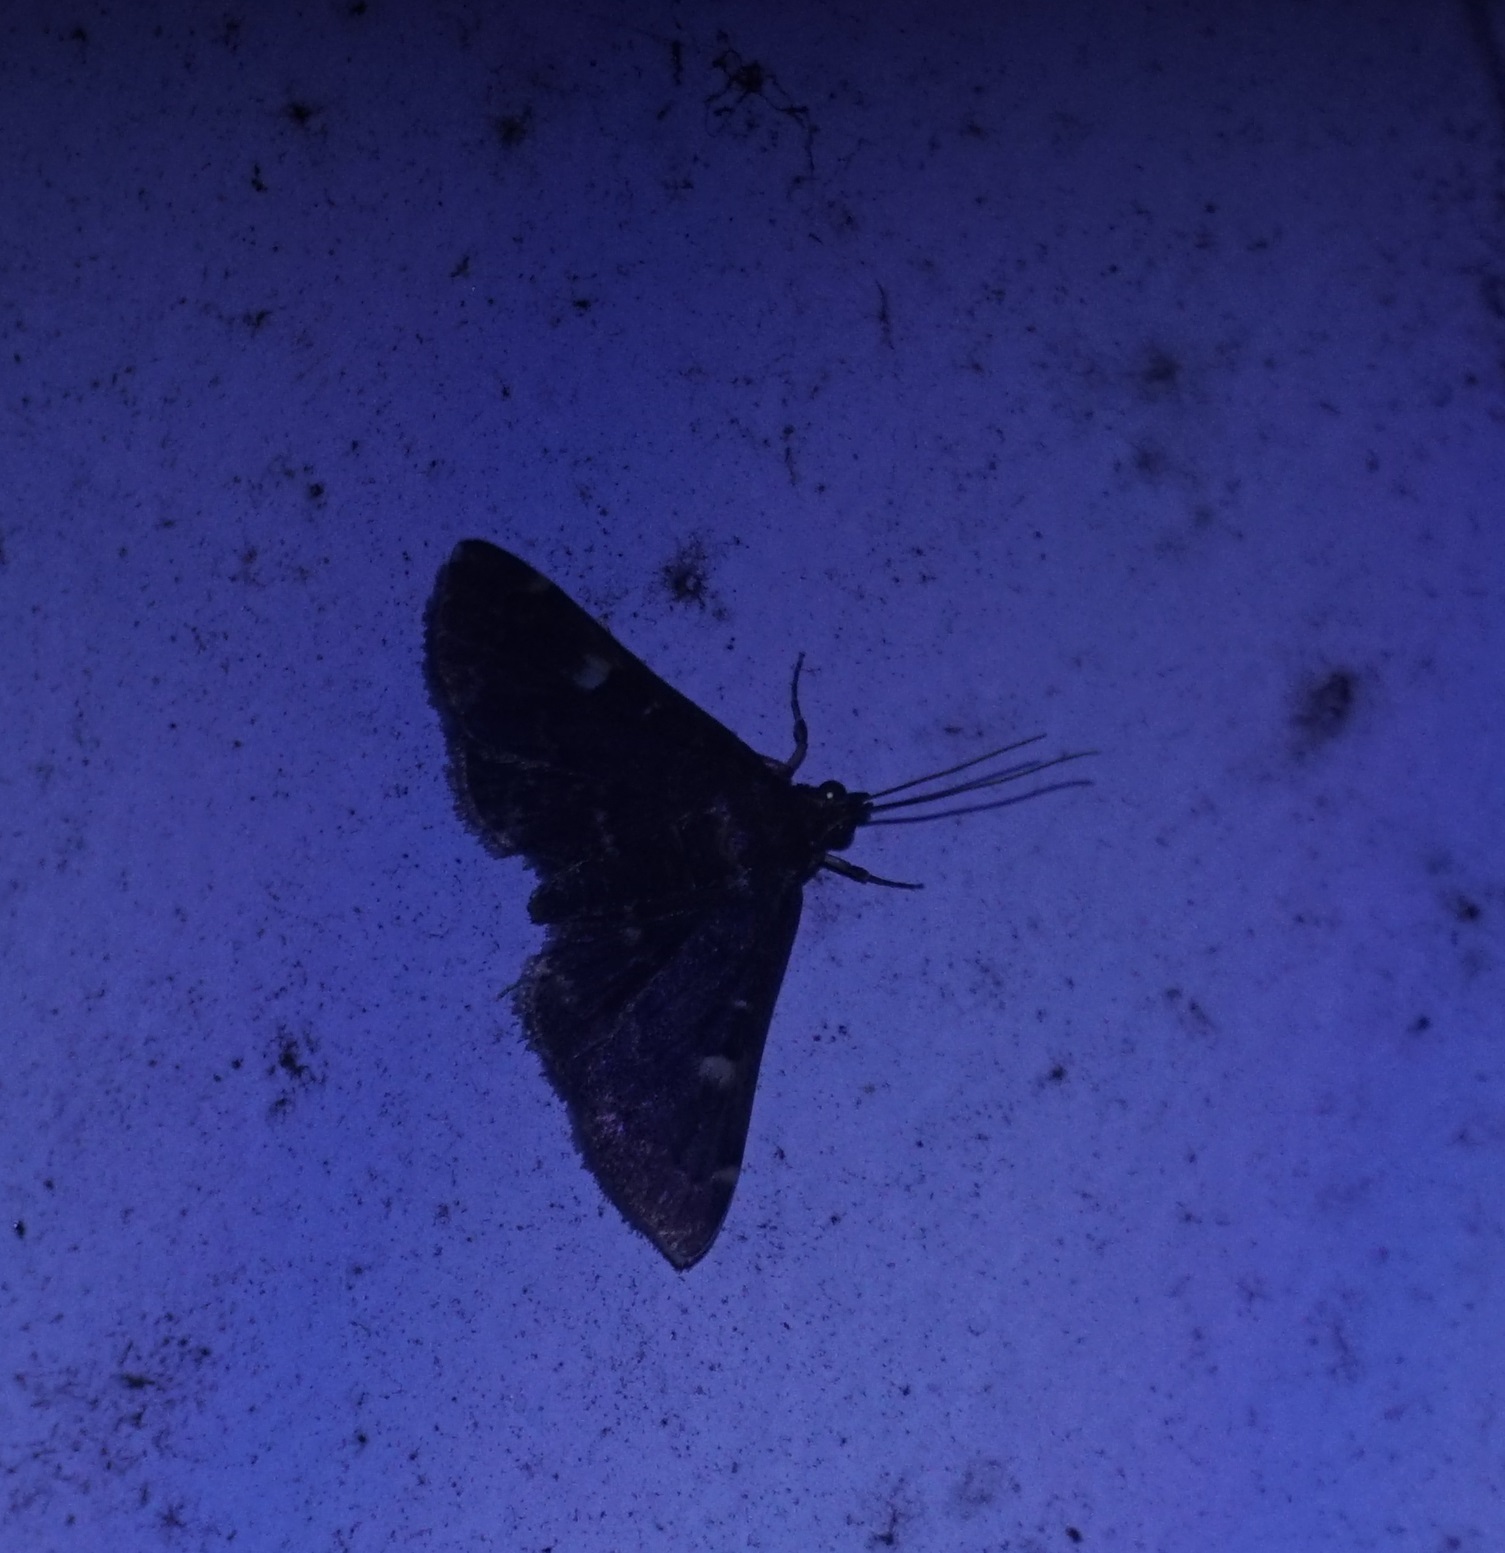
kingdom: Animalia
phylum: Arthropoda
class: Insecta
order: Lepidoptera
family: Crambidae
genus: Piletocera
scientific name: Piletocera meekii
